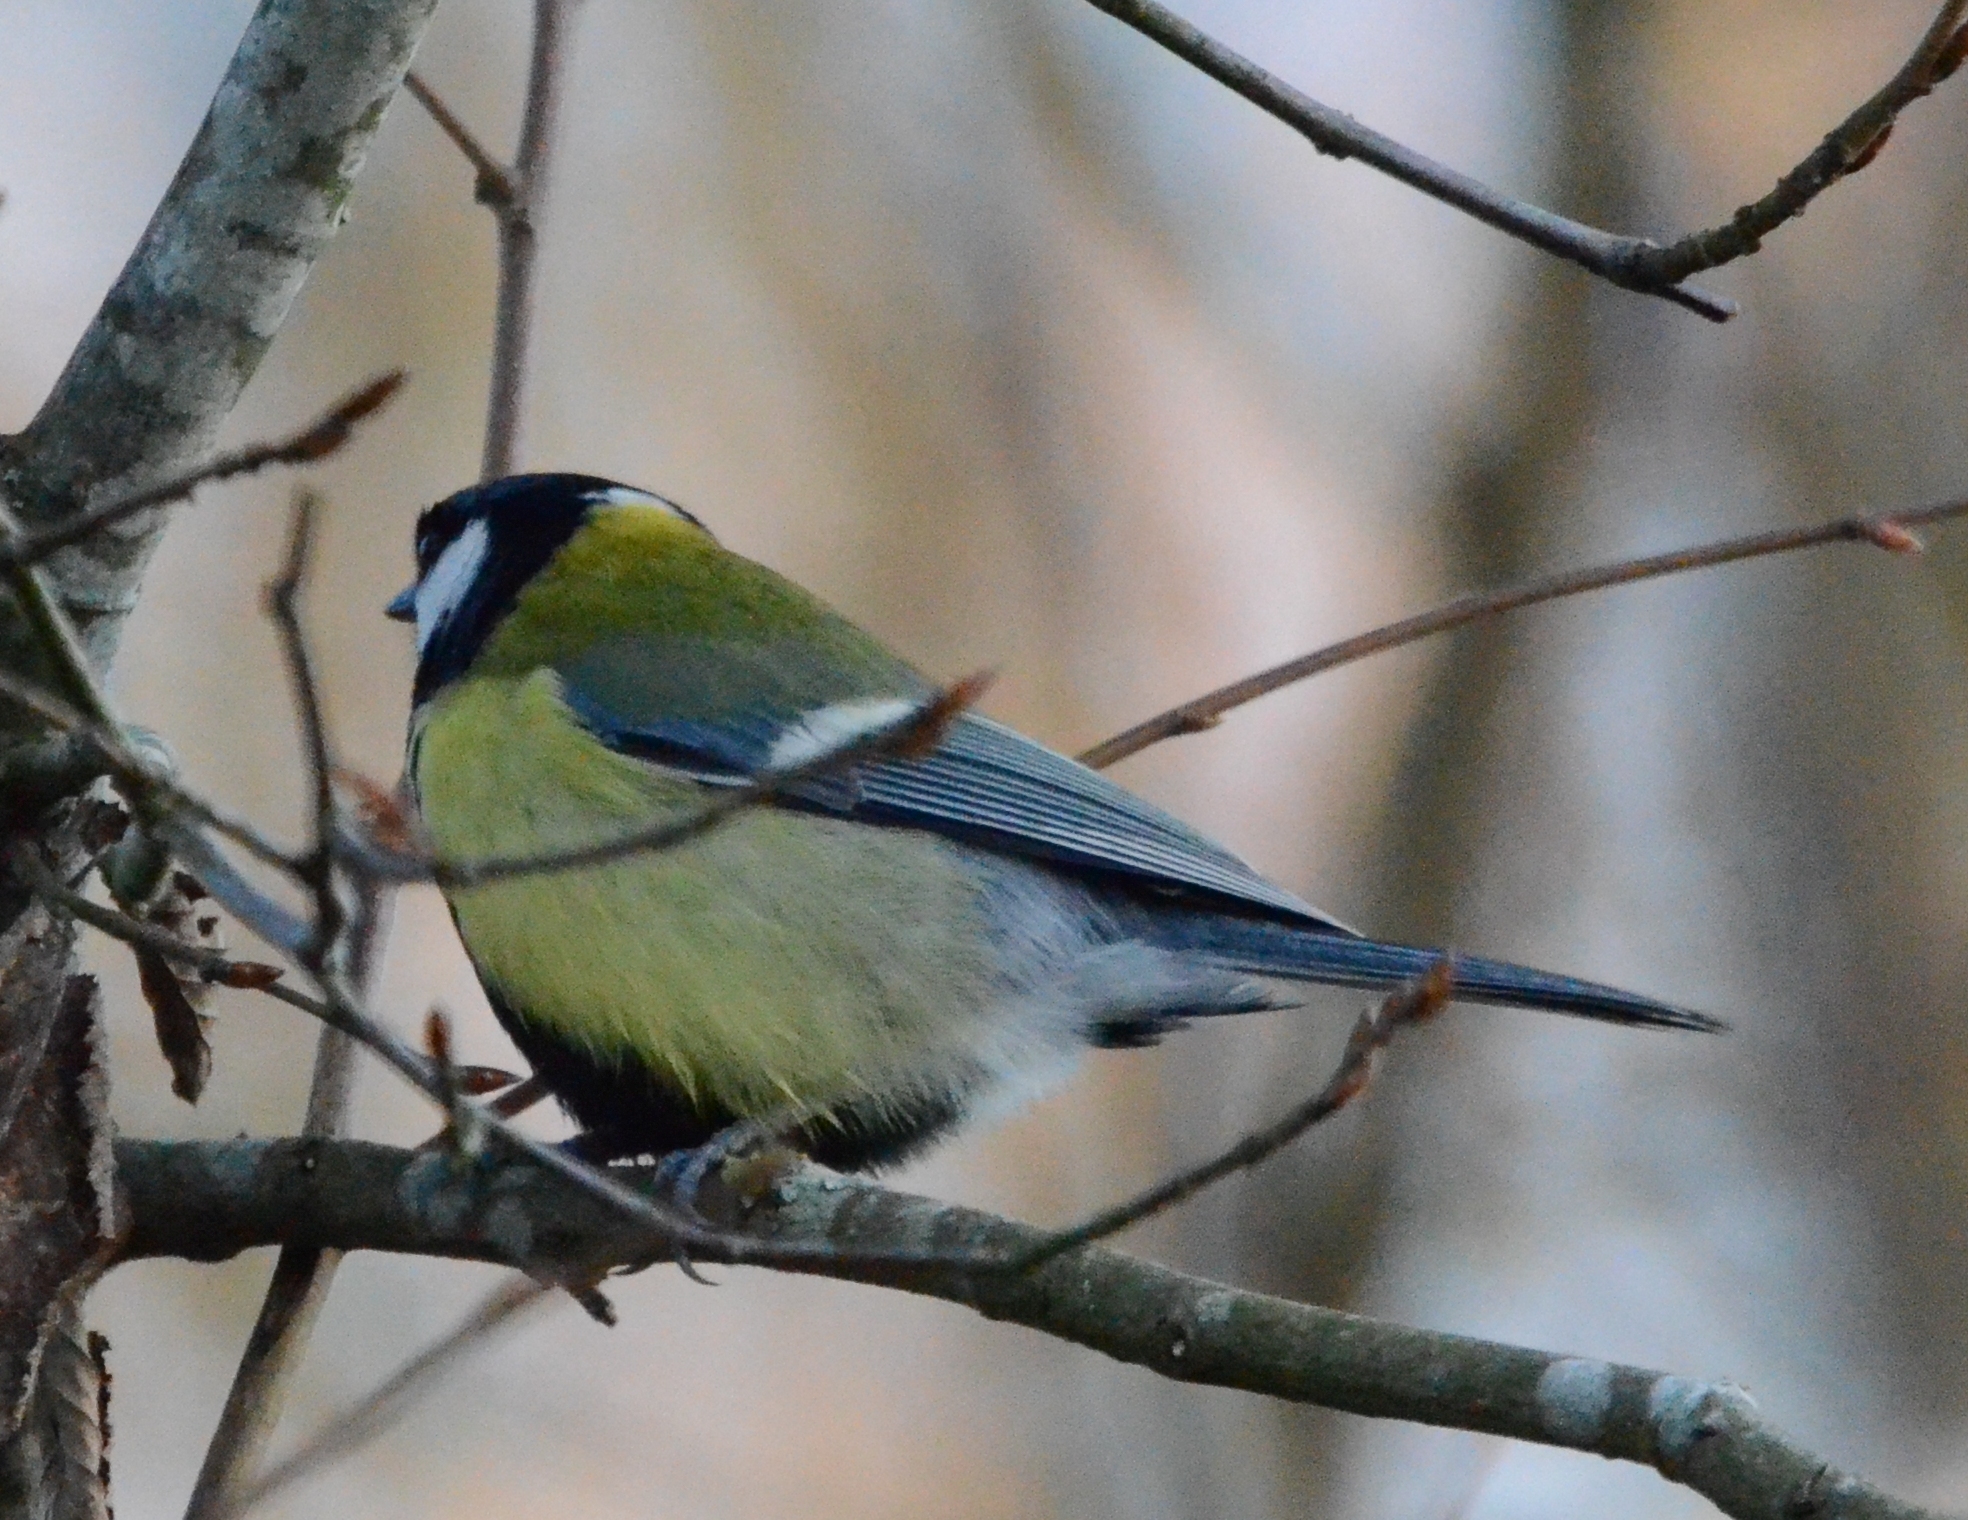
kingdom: Animalia
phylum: Chordata
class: Aves
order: Passeriformes
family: Paridae
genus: Parus
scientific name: Parus major
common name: Great tit
